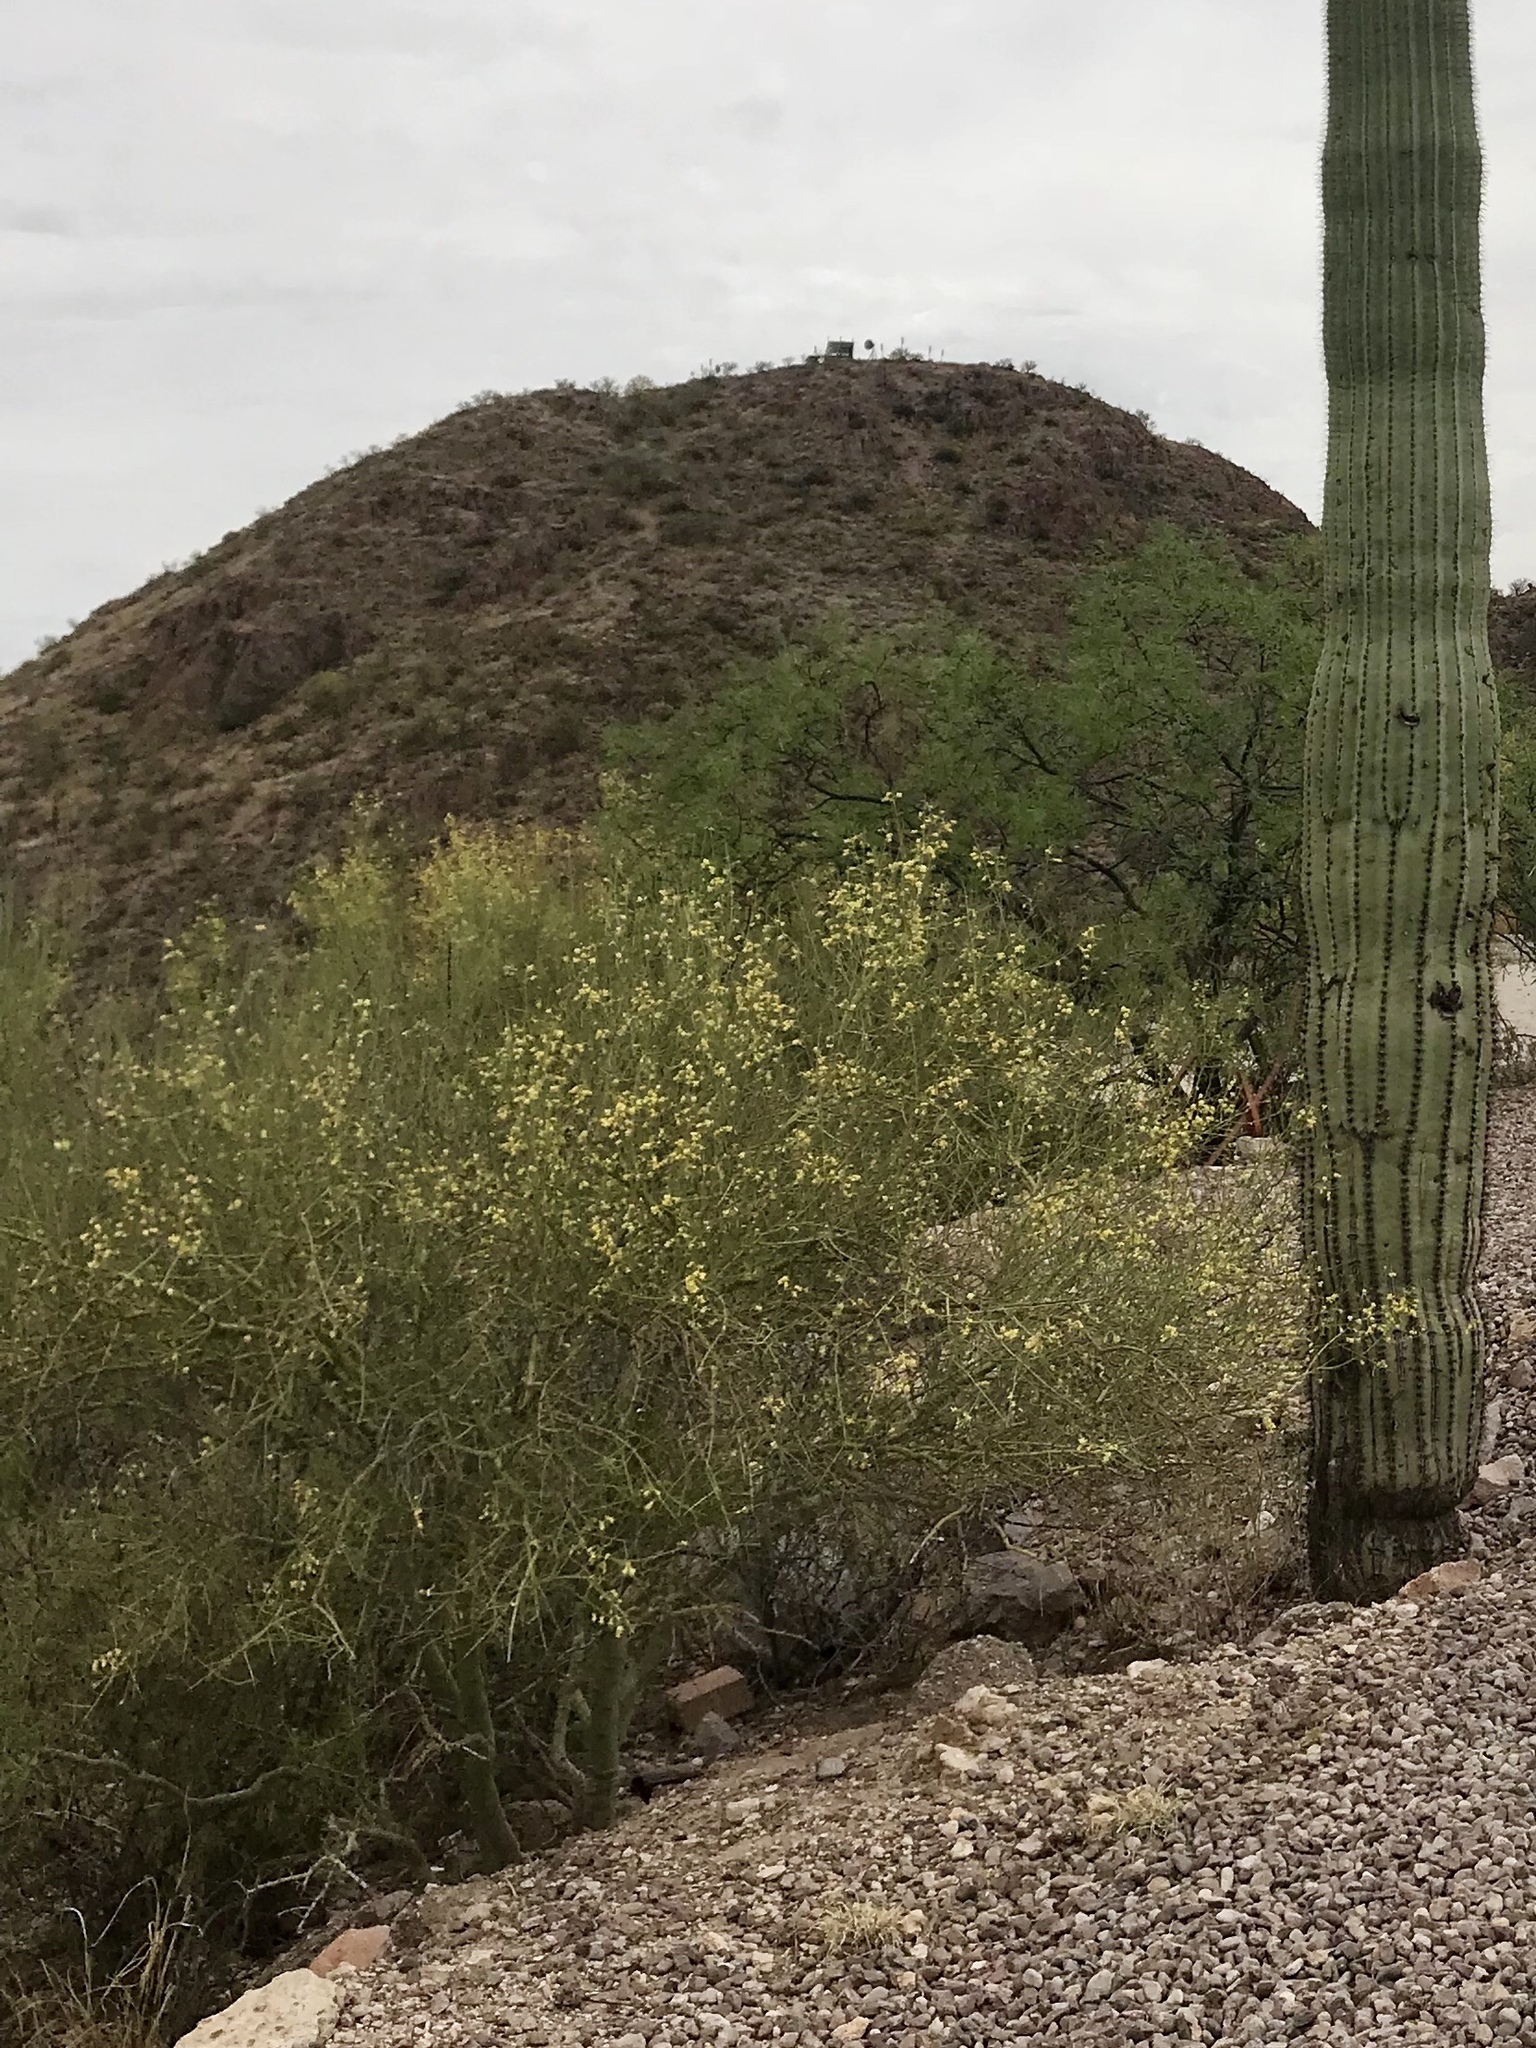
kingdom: Plantae
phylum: Tracheophyta
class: Magnoliopsida
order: Zygophyllales
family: Zygophyllaceae
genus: Larrea
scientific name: Larrea tridentata
